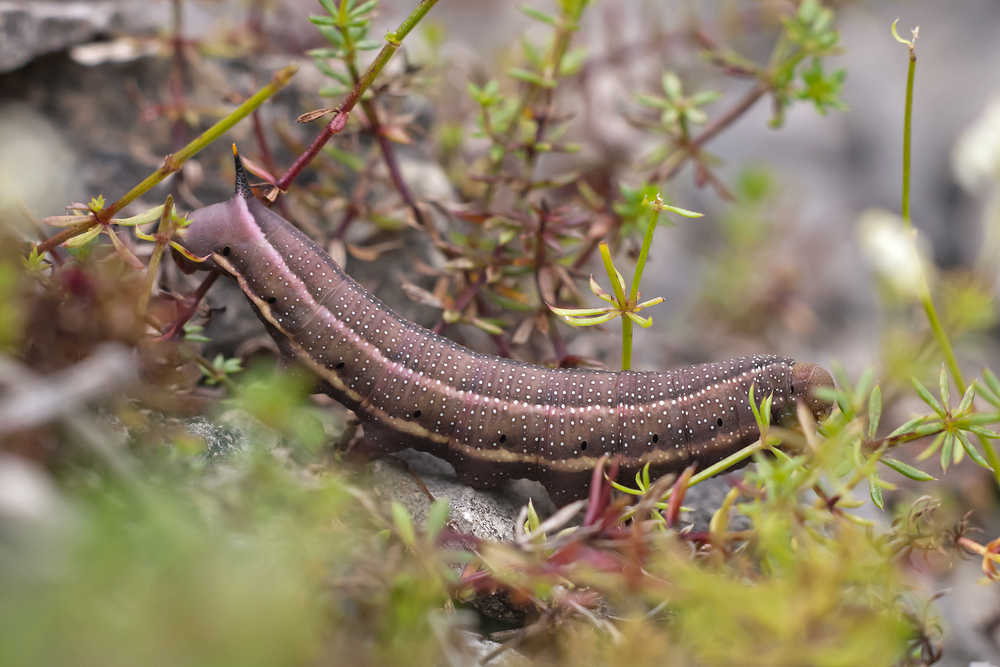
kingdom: Animalia
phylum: Arthropoda
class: Insecta
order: Lepidoptera
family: Sphingidae
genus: Macroglossum
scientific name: Macroglossum stellatarum
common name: Humming-bird hawk-moth
